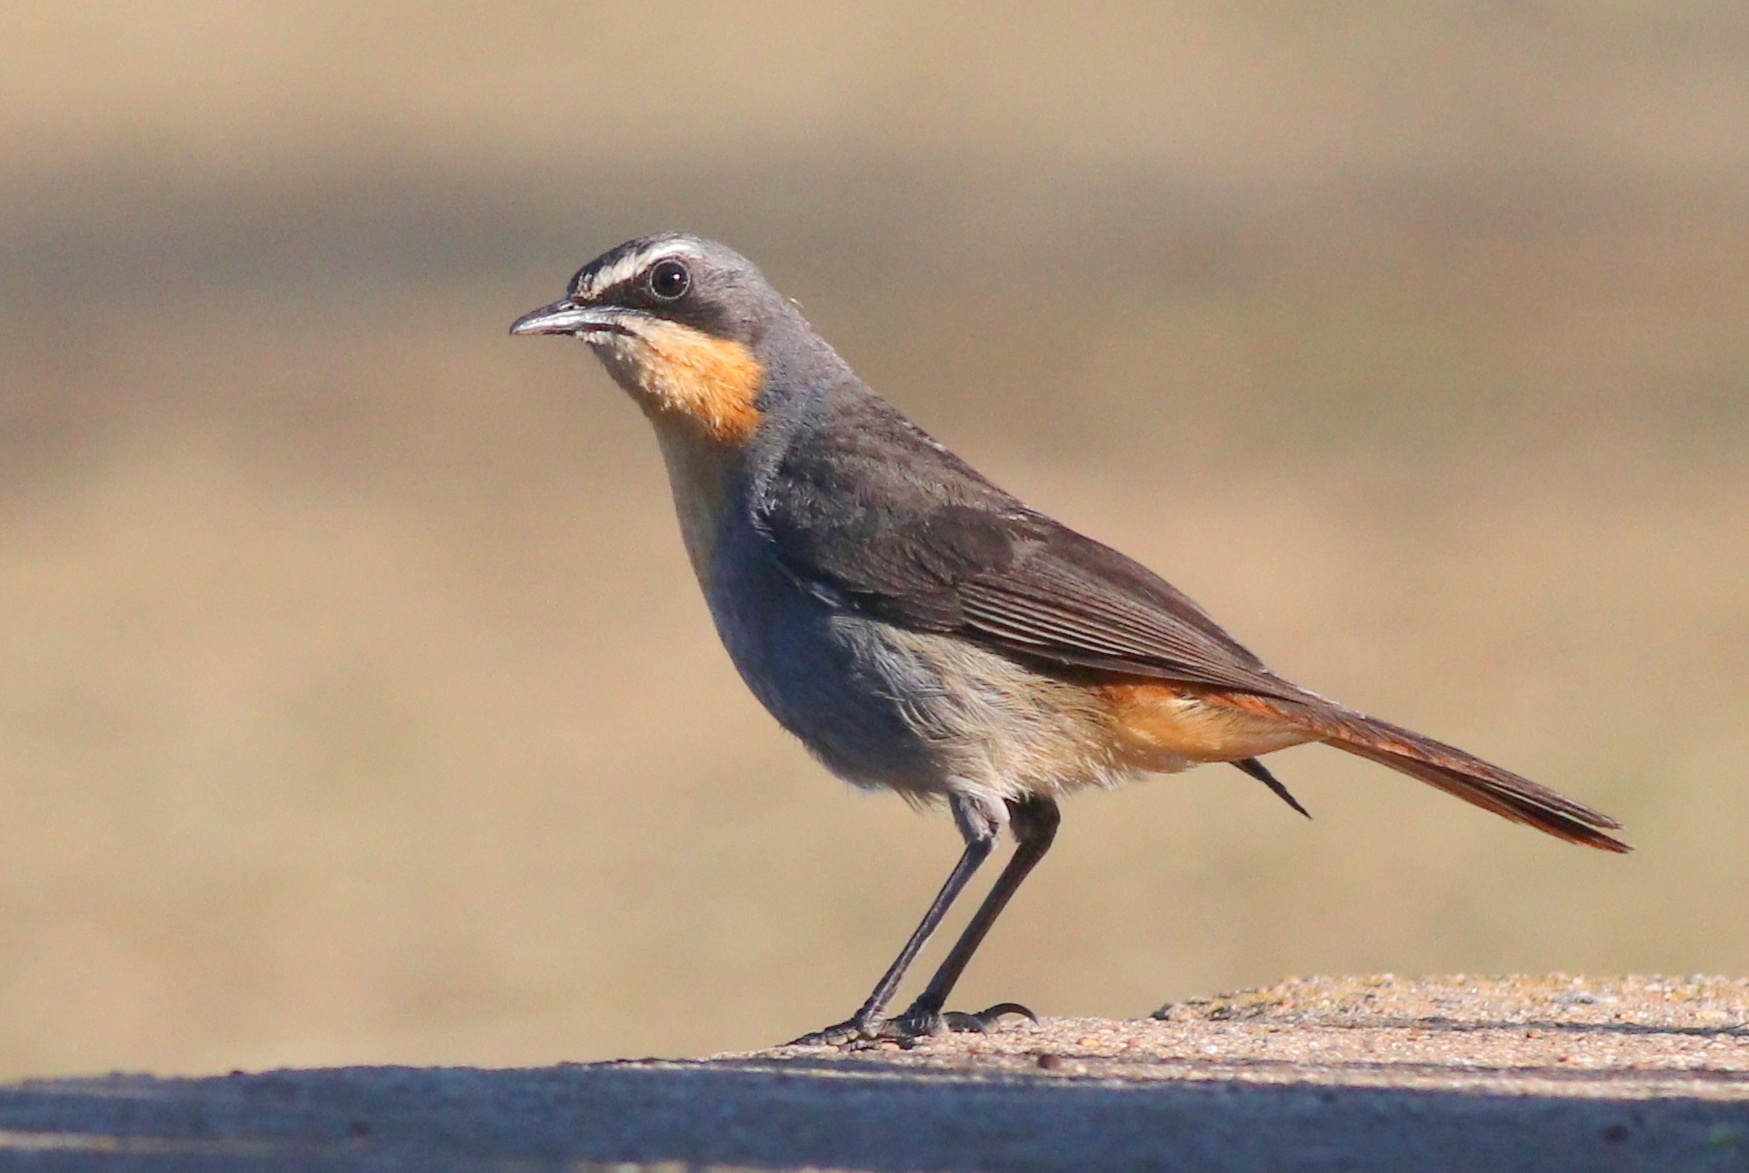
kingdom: Animalia
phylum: Chordata
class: Aves
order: Passeriformes
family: Muscicapidae
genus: Cossypha
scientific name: Cossypha caffra
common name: Cape robin-chat
